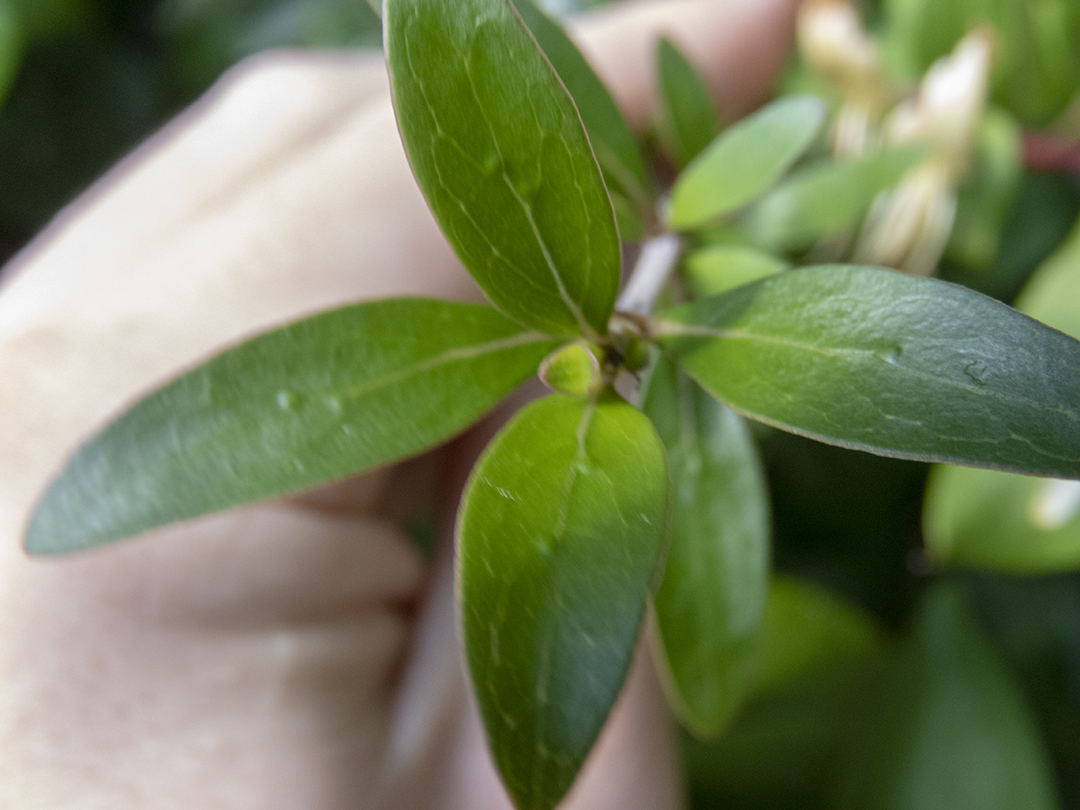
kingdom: Plantae
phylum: Tracheophyta
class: Magnoliopsida
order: Gentianales
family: Rubiaceae
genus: Coprosma
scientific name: Coprosma cunninghamii
